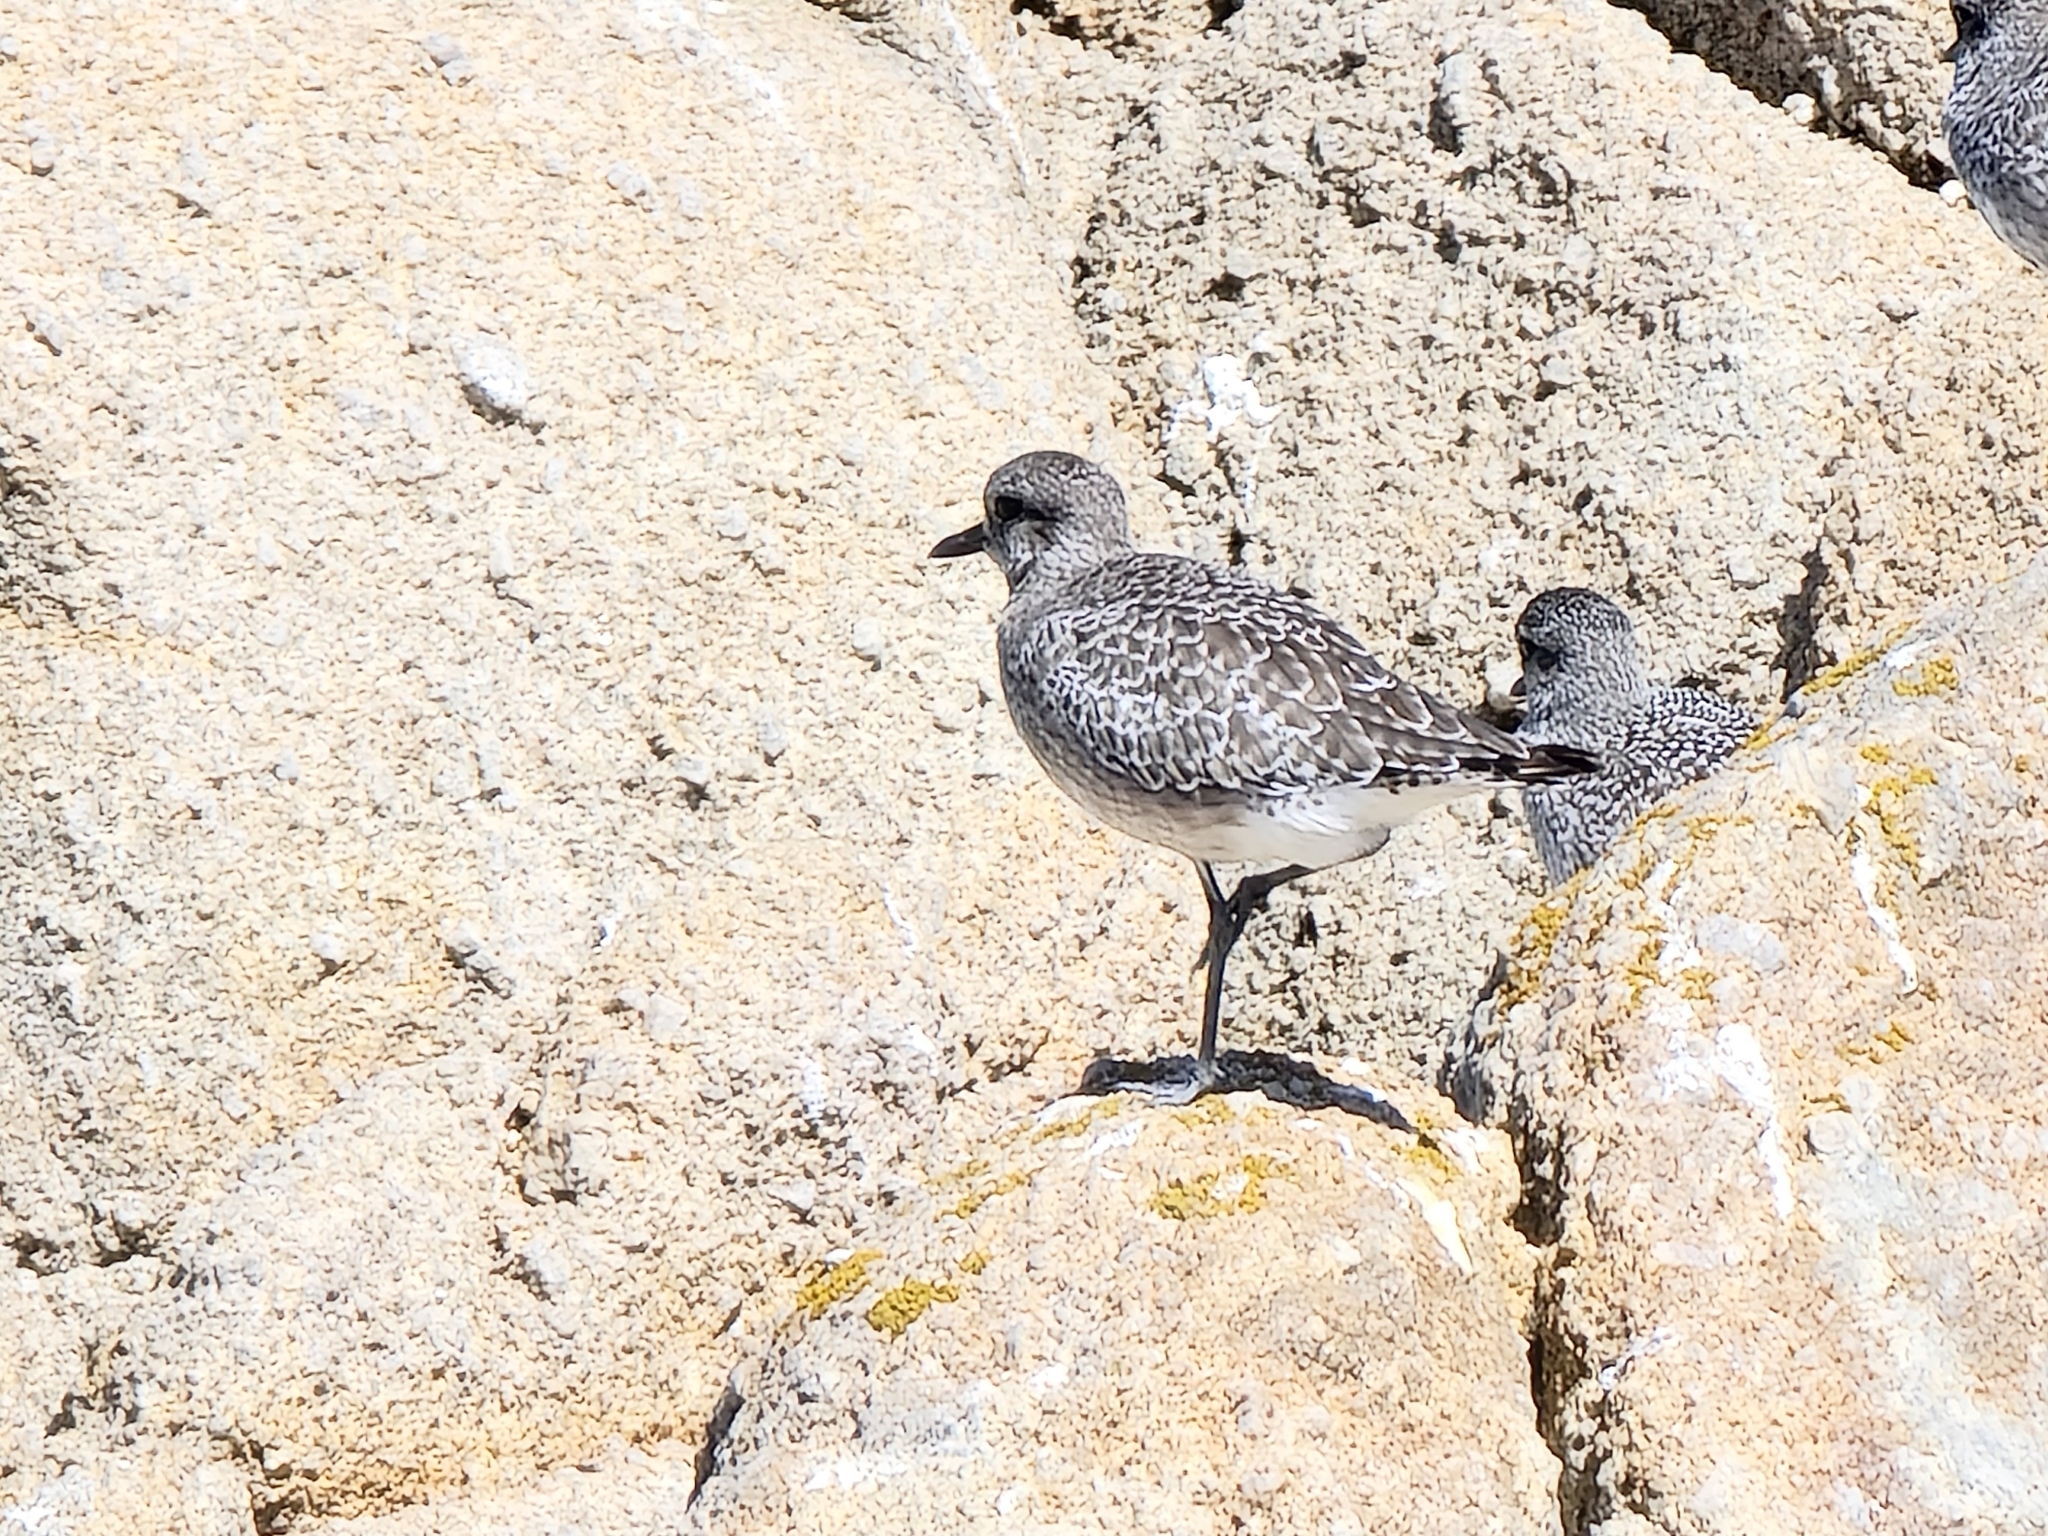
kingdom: Animalia
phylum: Chordata
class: Aves
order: Charadriiformes
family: Charadriidae
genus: Pluvialis
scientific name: Pluvialis squatarola
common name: Grey plover
